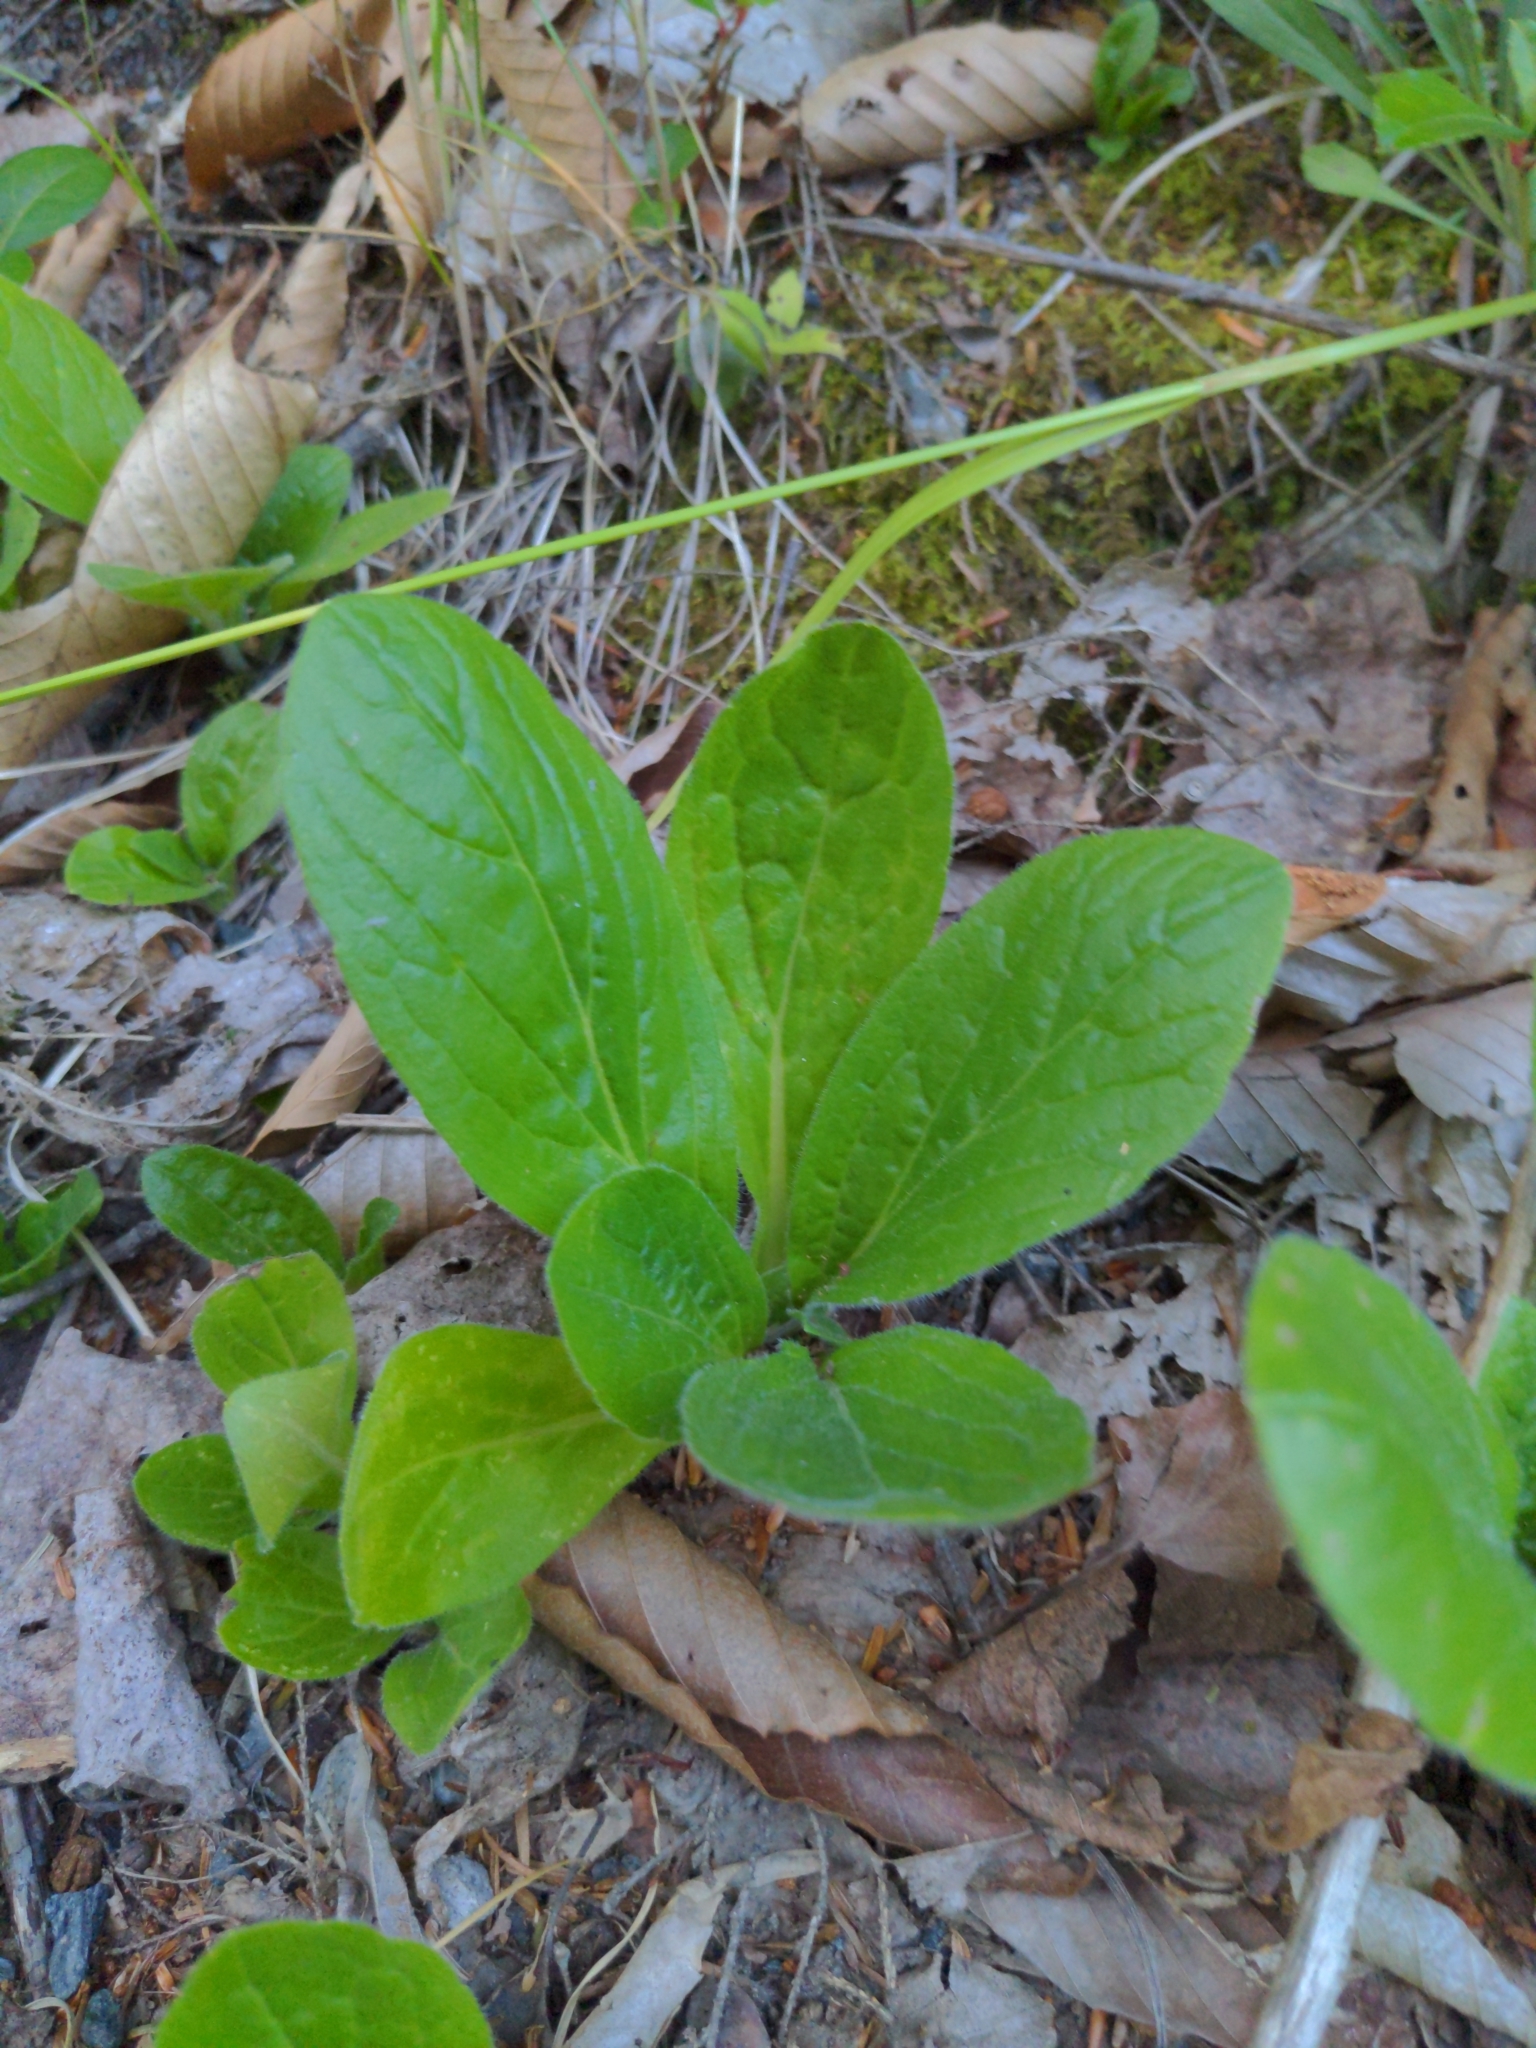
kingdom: Plantae
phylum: Tracheophyta
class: Magnoliopsida
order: Boraginales
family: Boraginaceae
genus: Hackelia
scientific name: Hackelia virginiana
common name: Beggar's-lice
